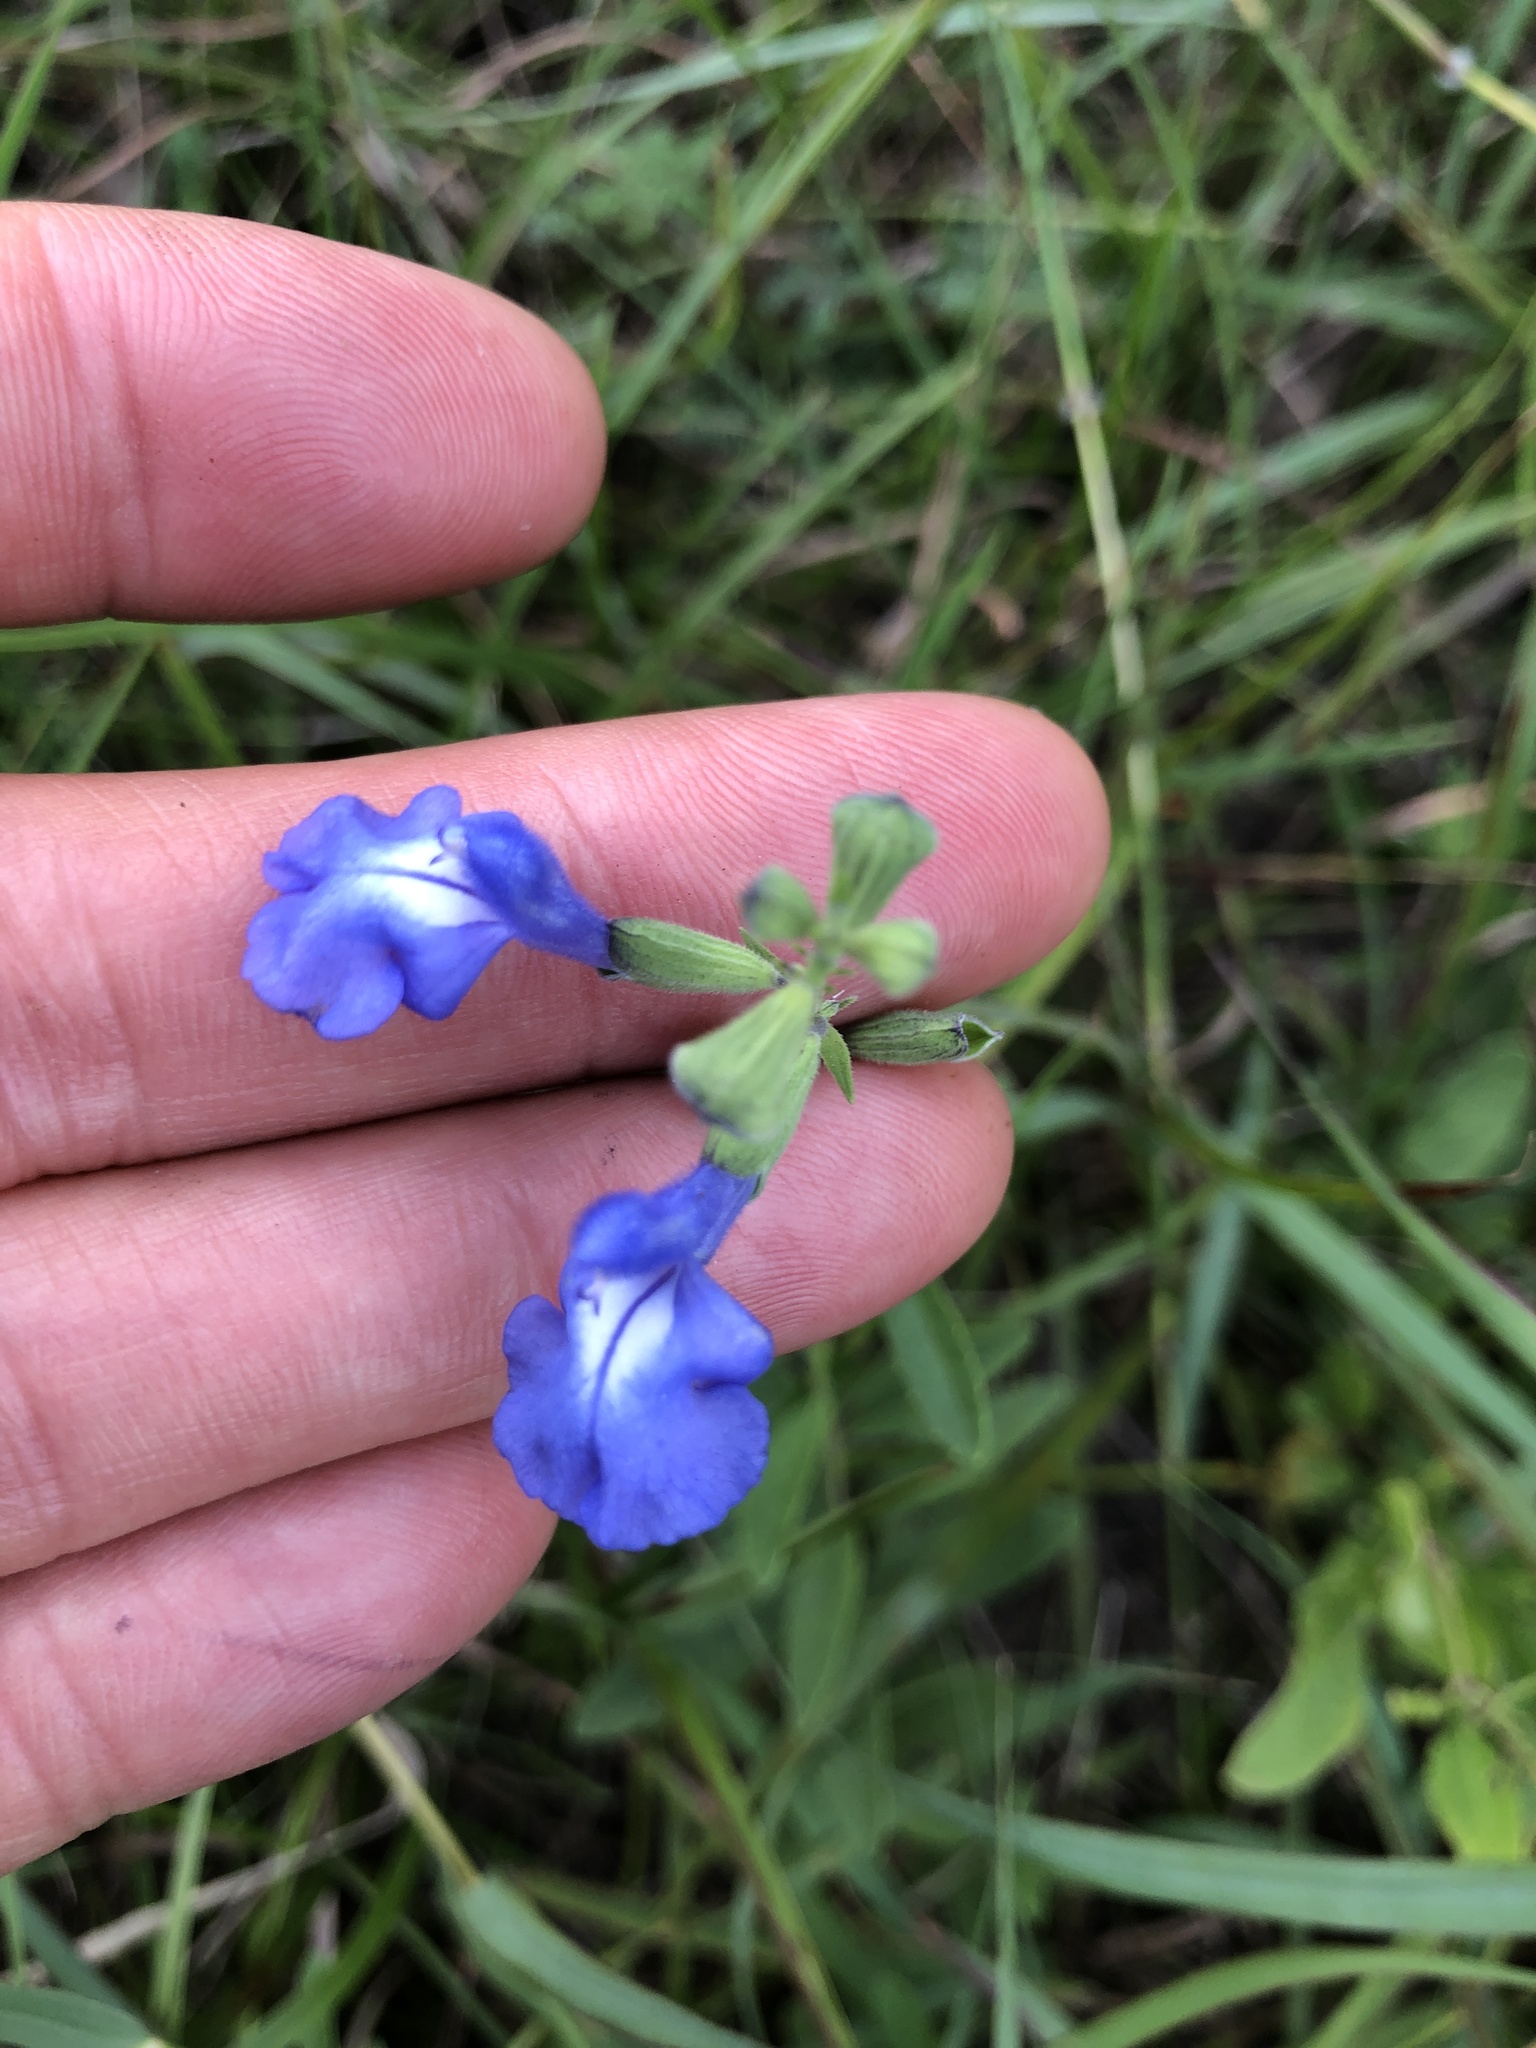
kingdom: Plantae
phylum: Tracheophyta
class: Magnoliopsida
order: Lamiales
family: Lamiaceae
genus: Salvia
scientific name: Salvia azurea
